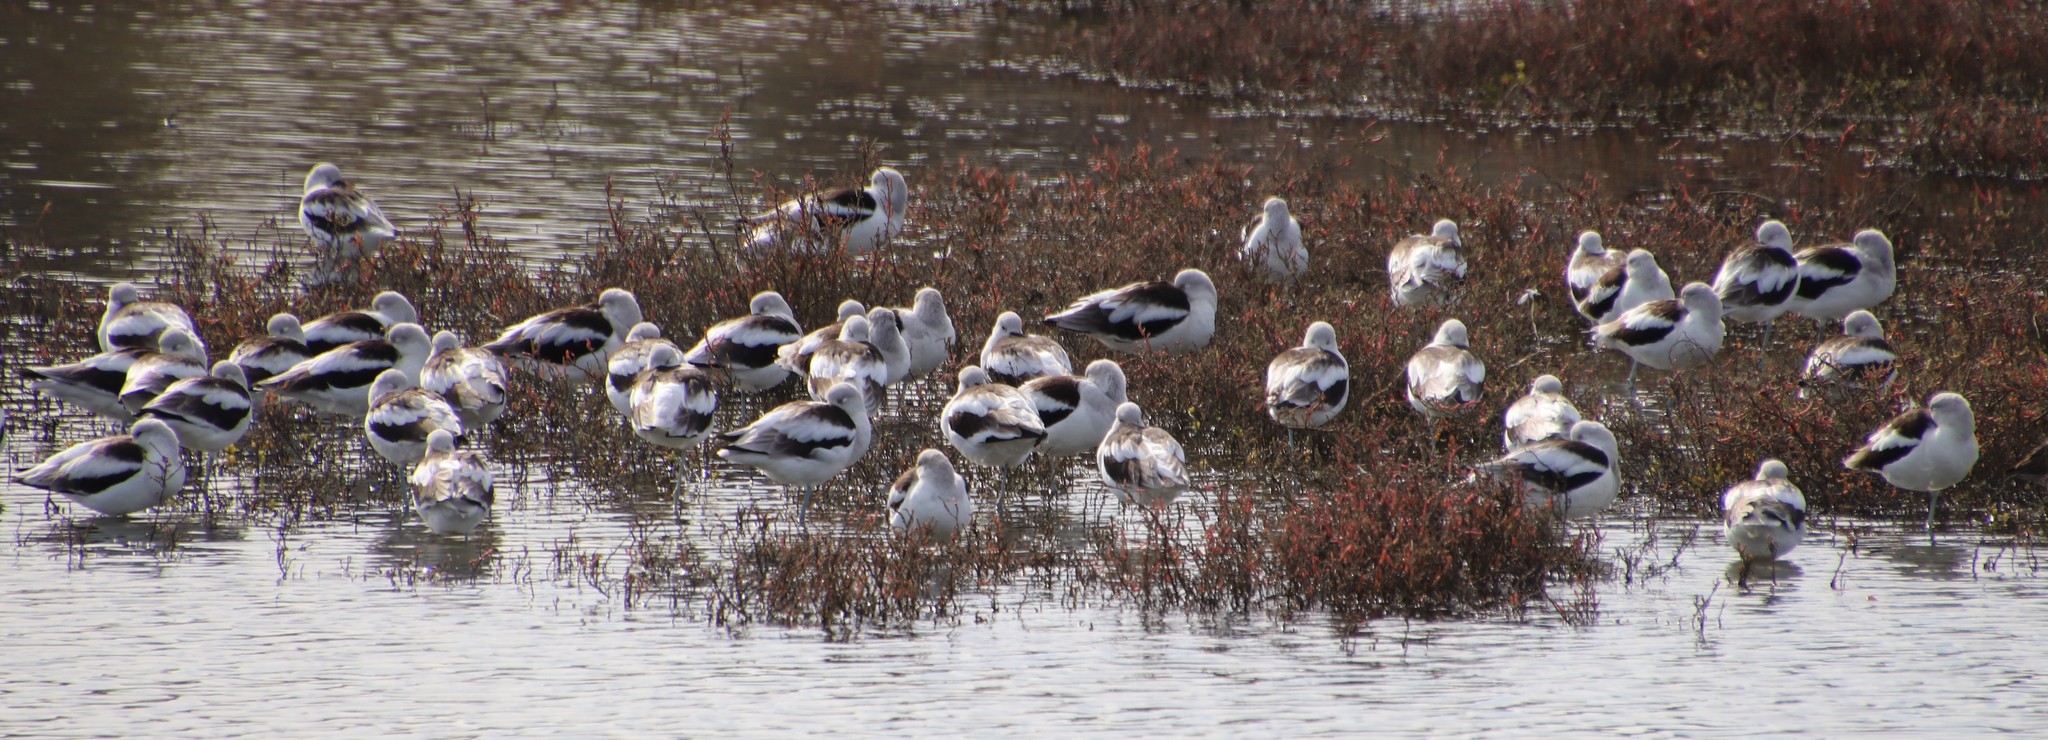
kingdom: Animalia
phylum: Chordata
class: Aves
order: Charadriiformes
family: Recurvirostridae
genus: Recurvirostra
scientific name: Recurvirostra americana
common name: American avocet
